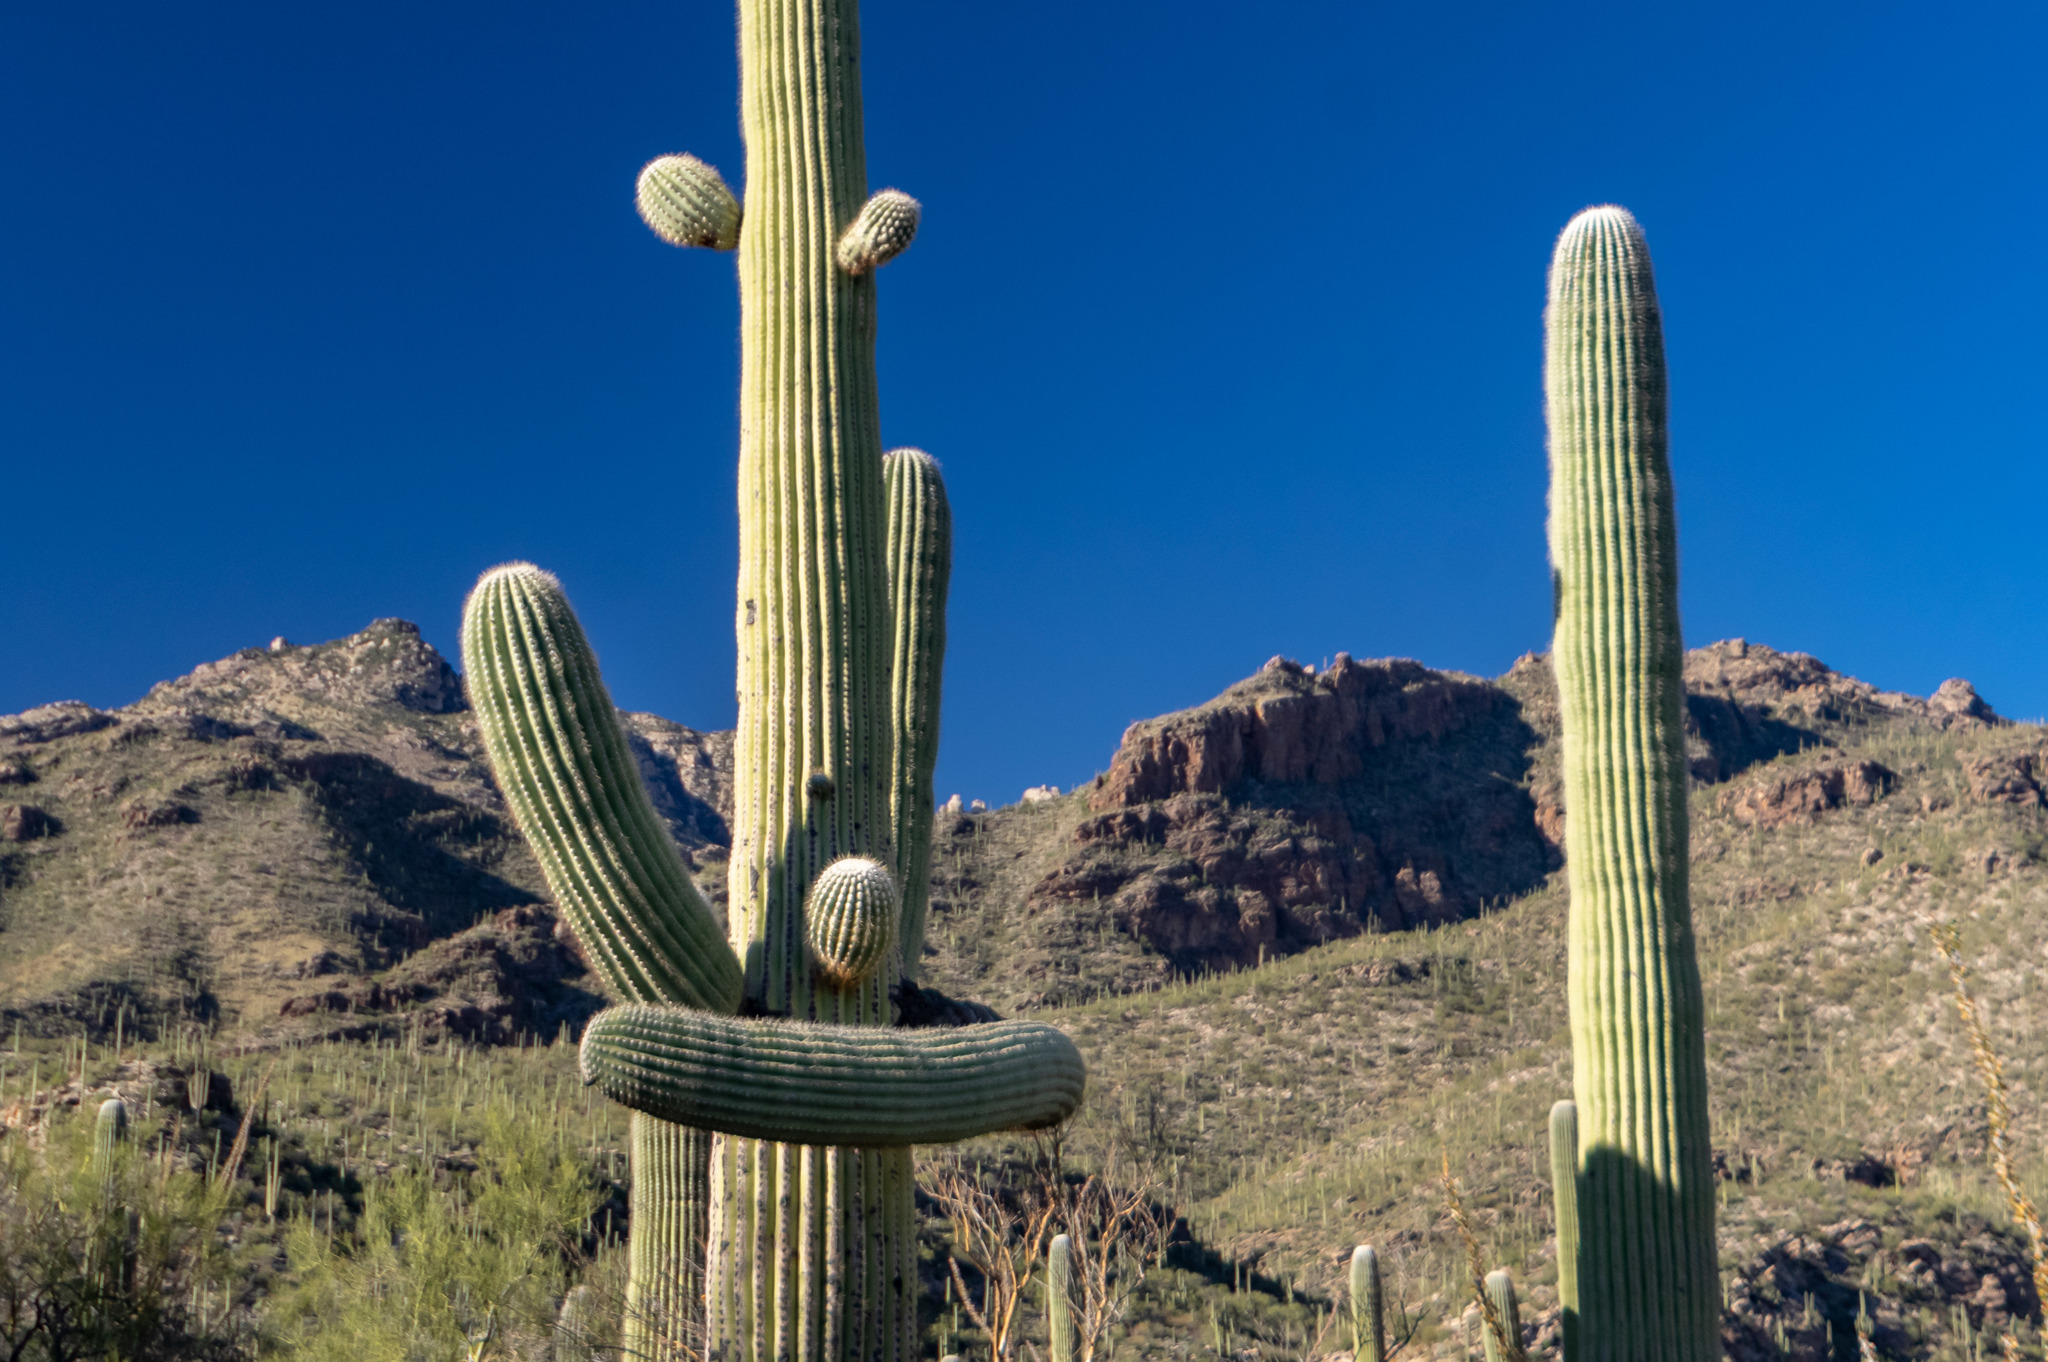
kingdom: Plantae
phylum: Tracheophyta
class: Magnoliopsida
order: Caryophyllales
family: Cactaceae
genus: Carnegiea
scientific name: Carnegiea gigantea
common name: Saguaro
